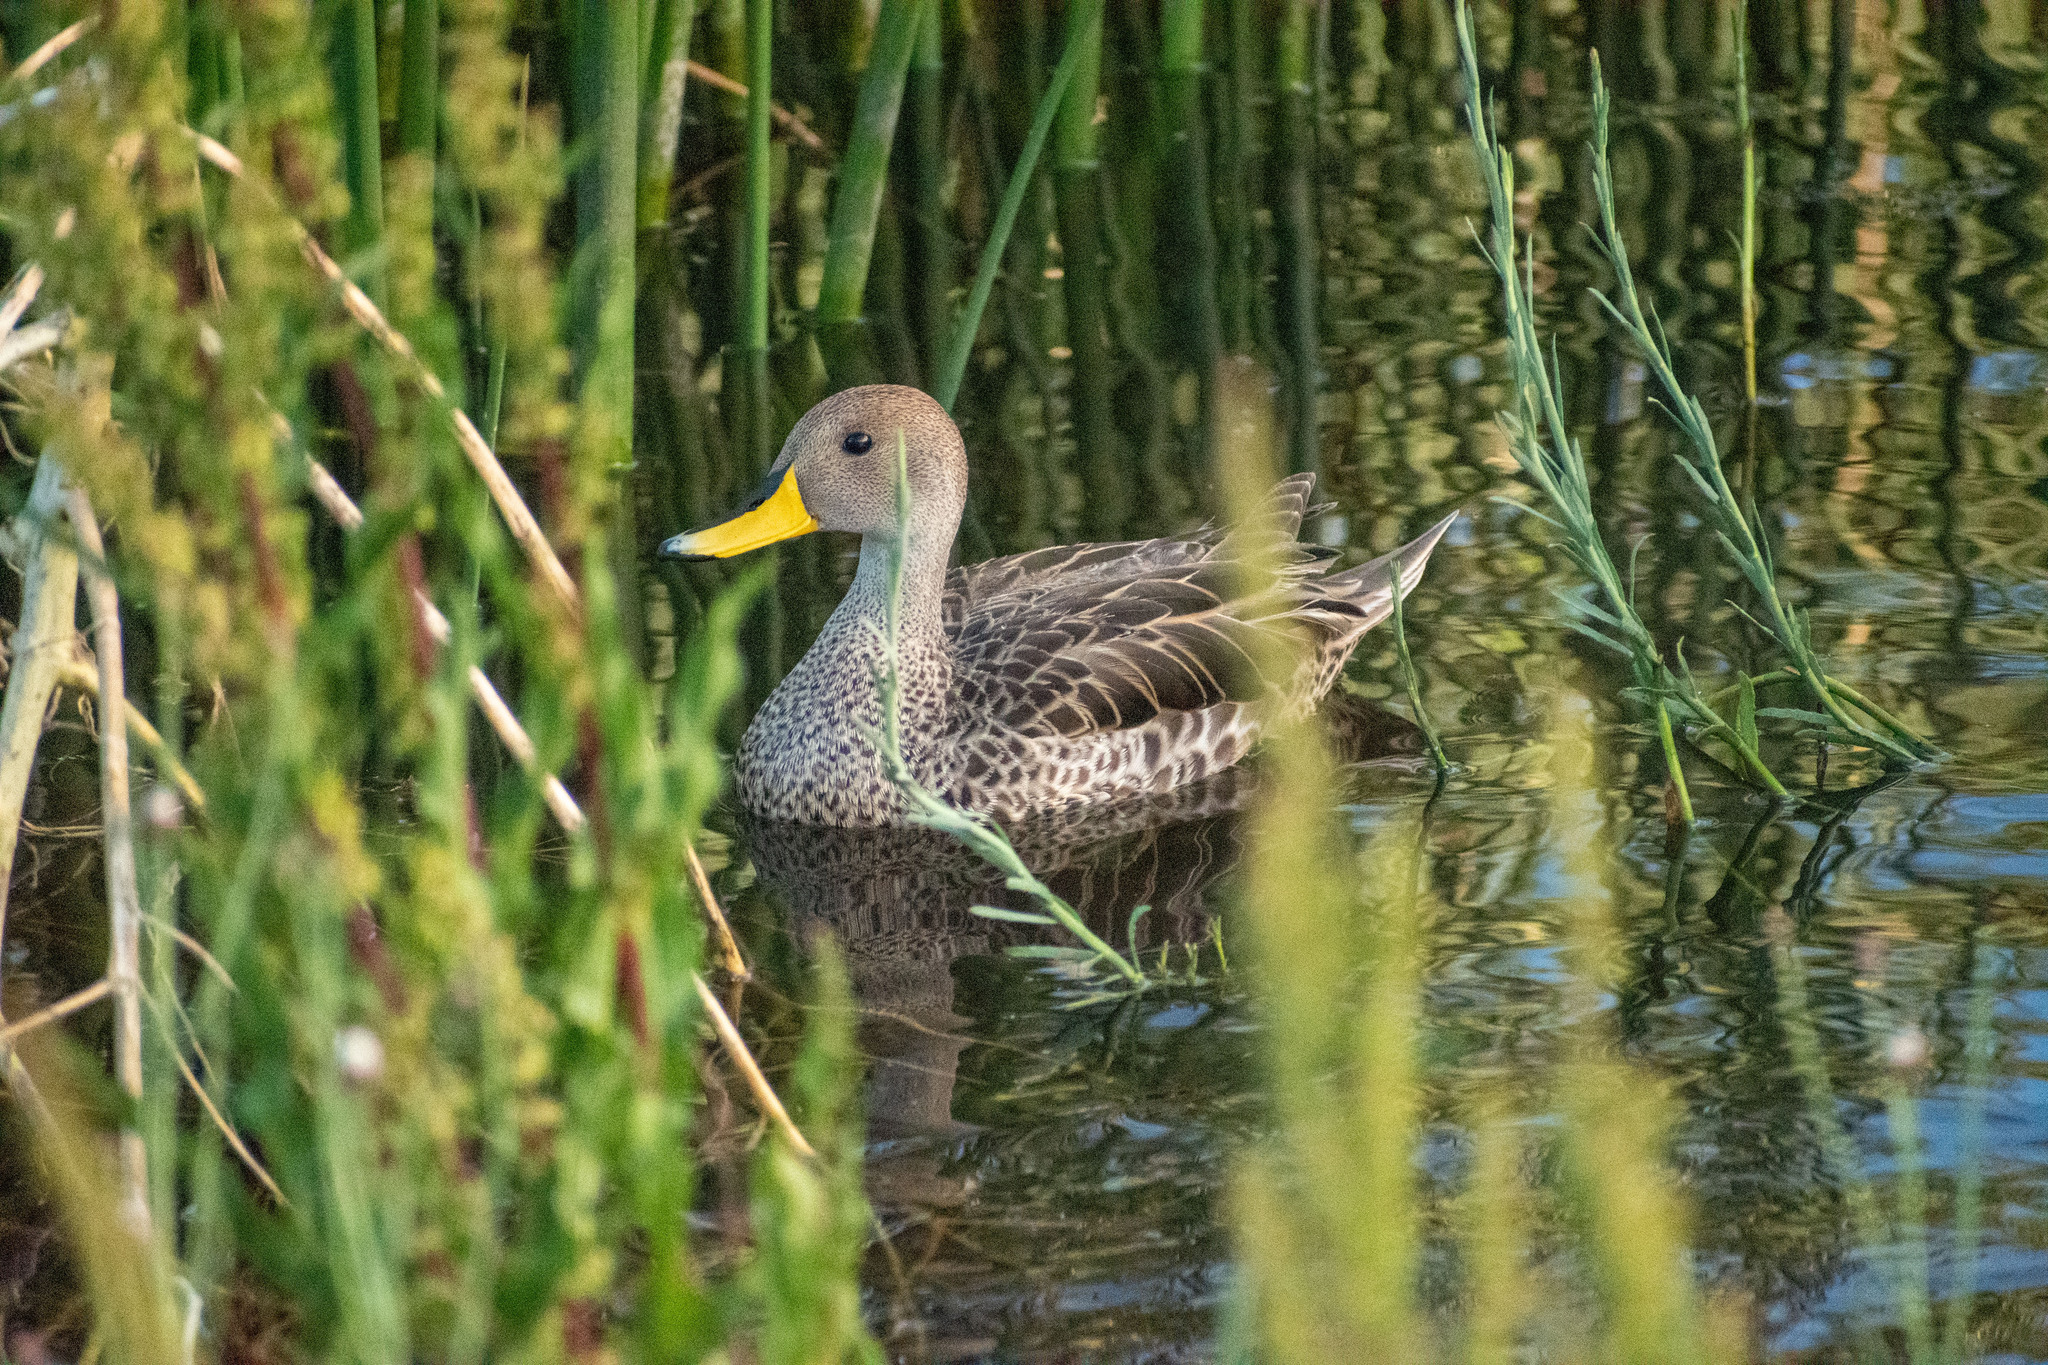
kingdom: Animalia
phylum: Chordata
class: Aves
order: Anseriformes
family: Anatidae
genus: Anas
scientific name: Anas georgica
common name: Yellow-billed pintail
